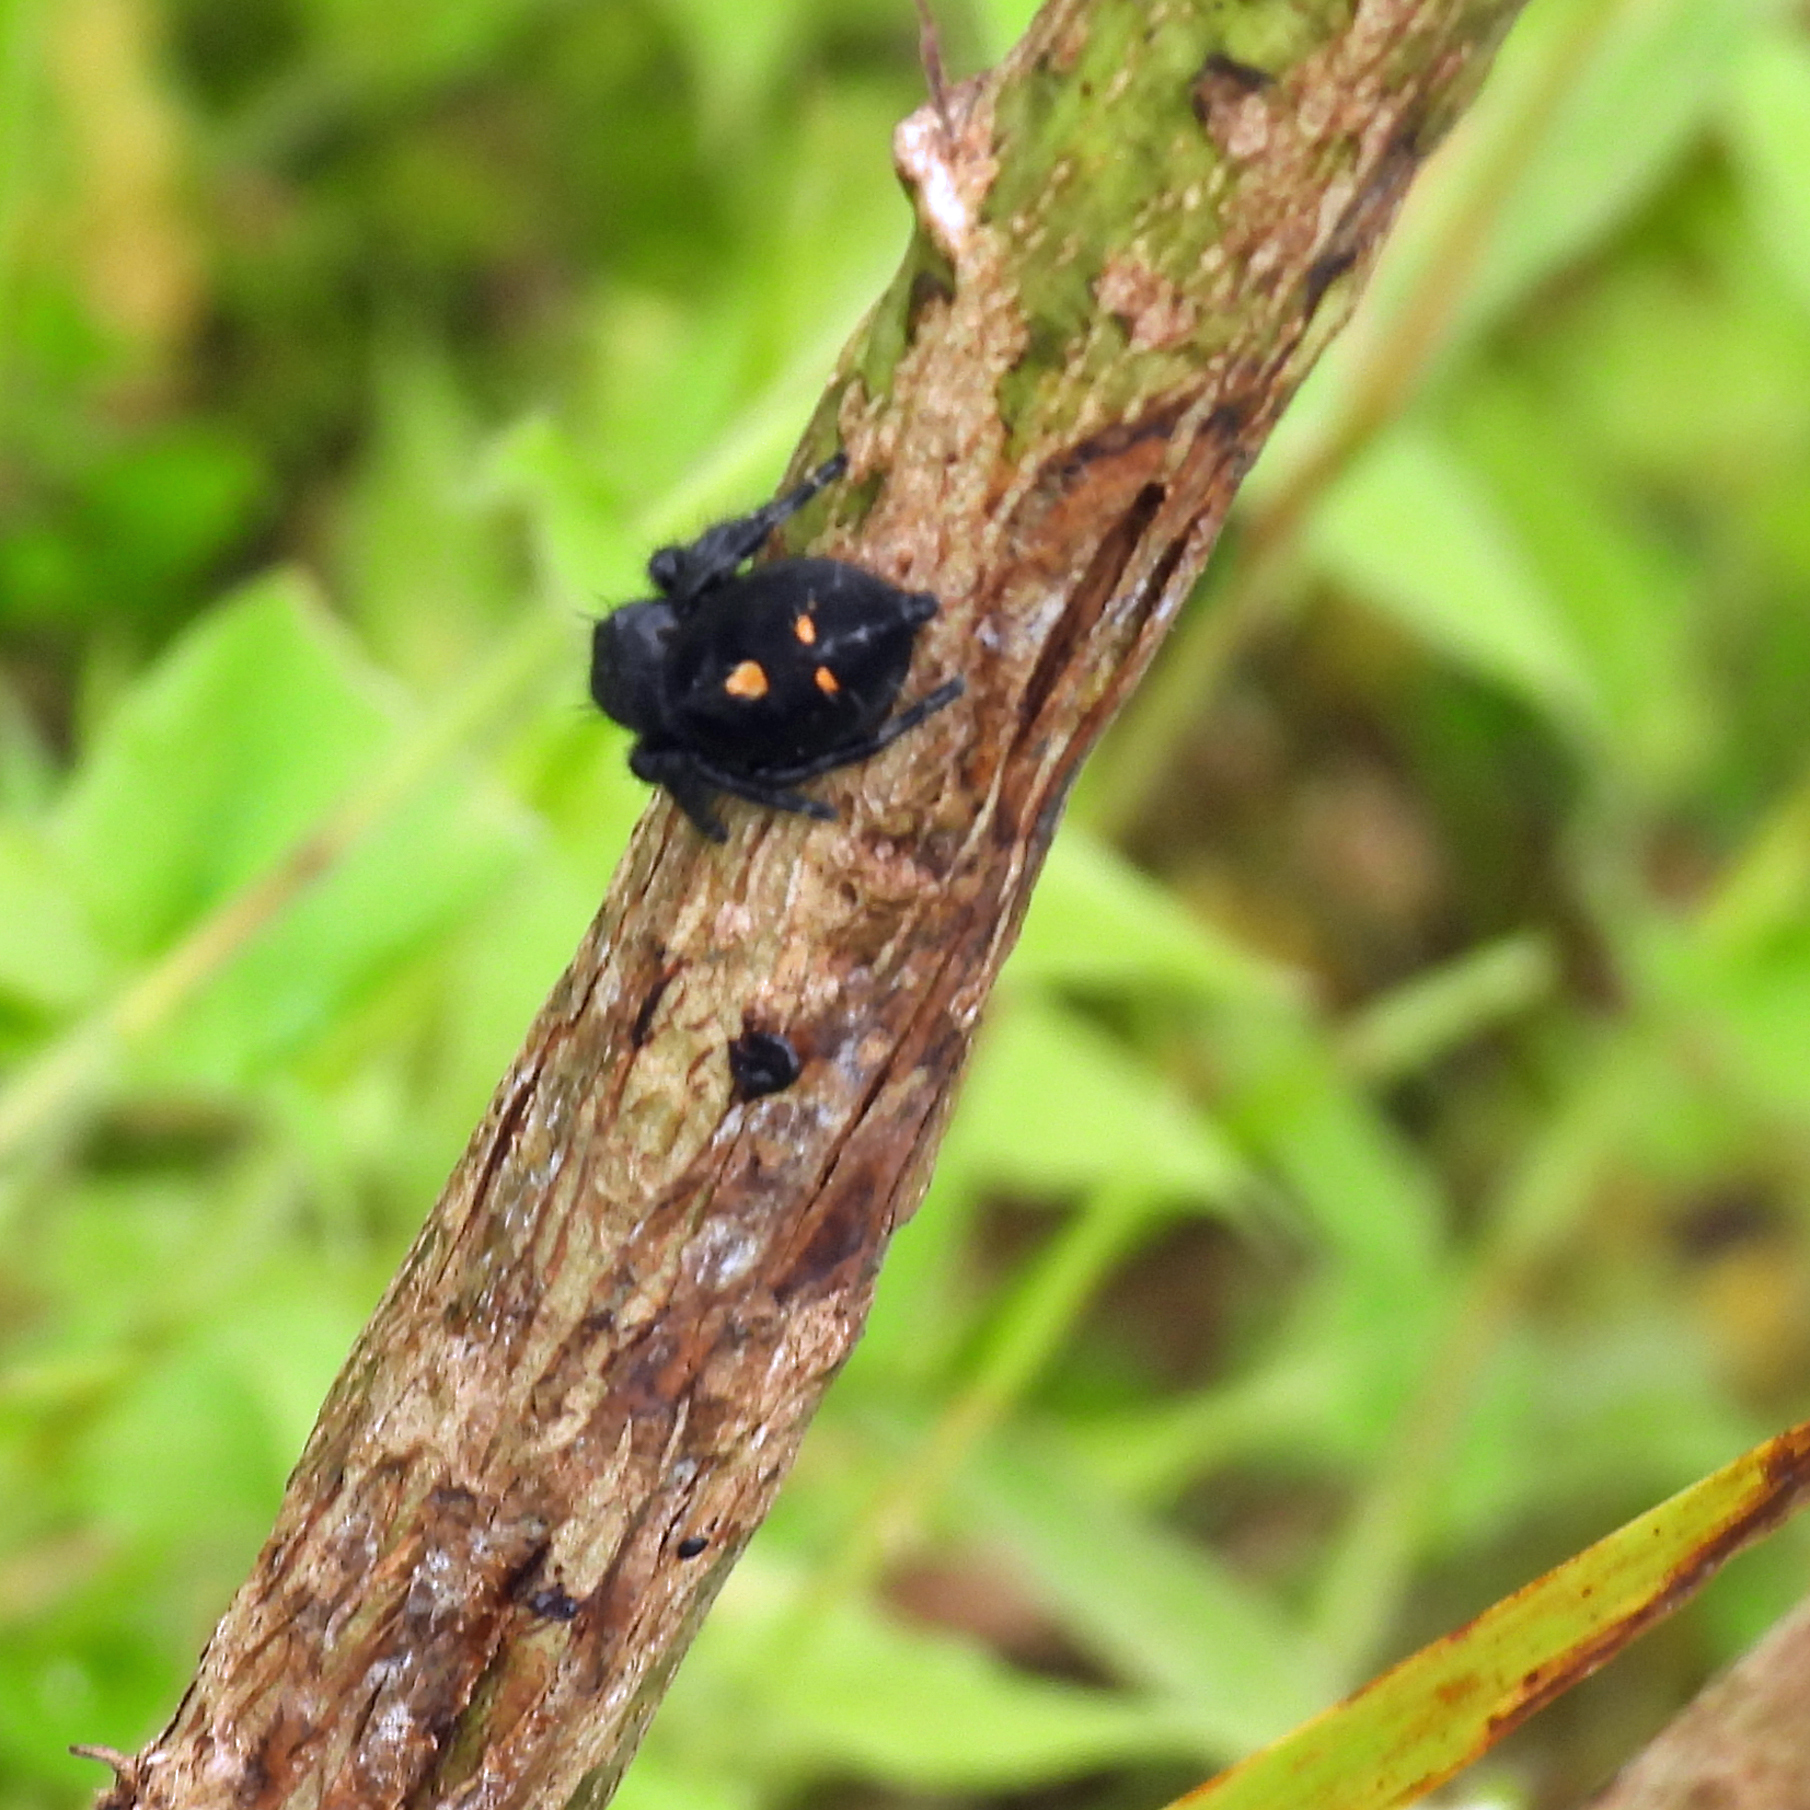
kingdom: Animalia
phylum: Arthropoda
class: Arachnida
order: Araneae
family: Salticidae
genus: Phidippus
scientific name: Phidippus audax
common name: Bold jumper
